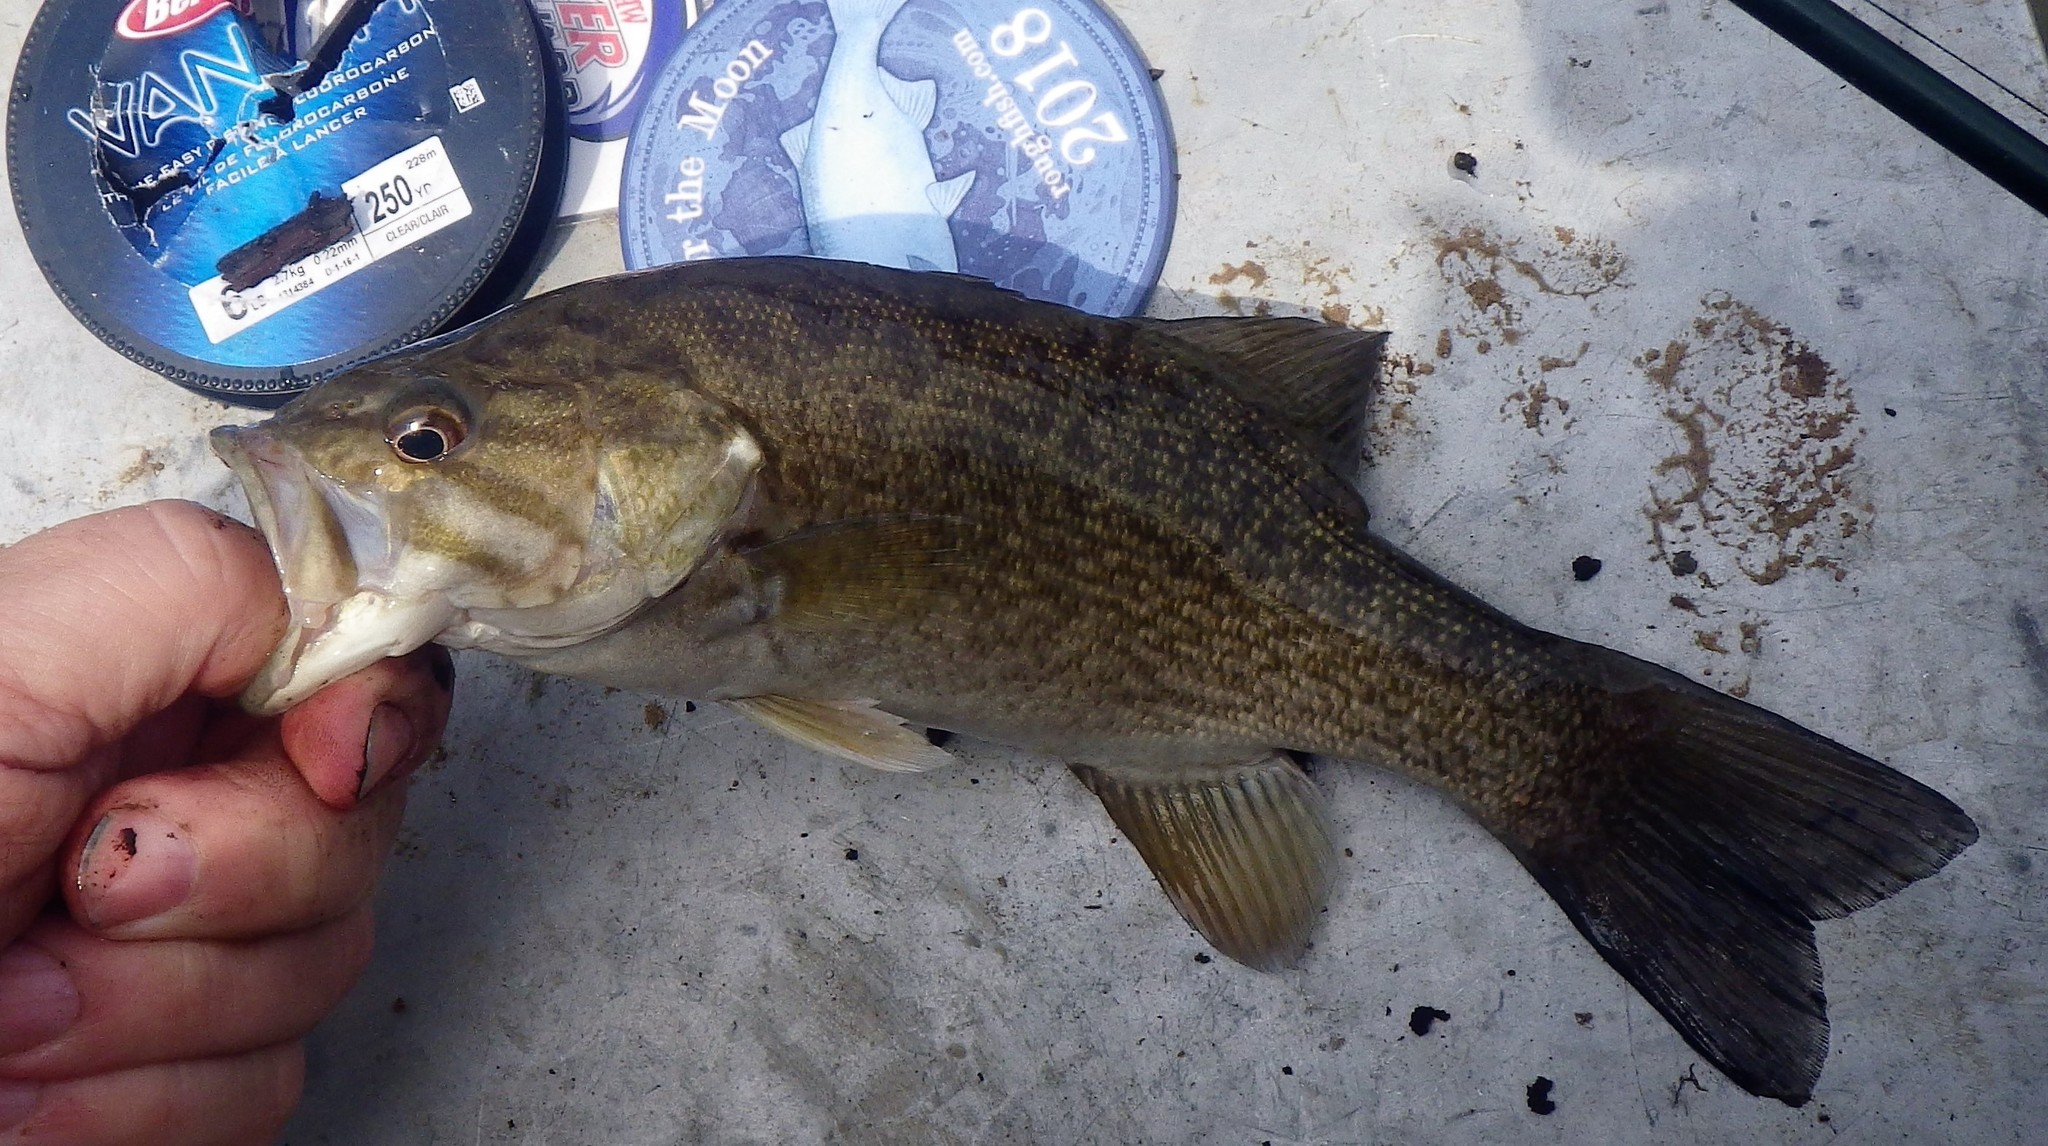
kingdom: Animalia
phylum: Chordata
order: Perciformes
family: Centrarchidae
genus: Micropterus
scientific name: Micropterus dolomieu
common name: Smallmouth bass
